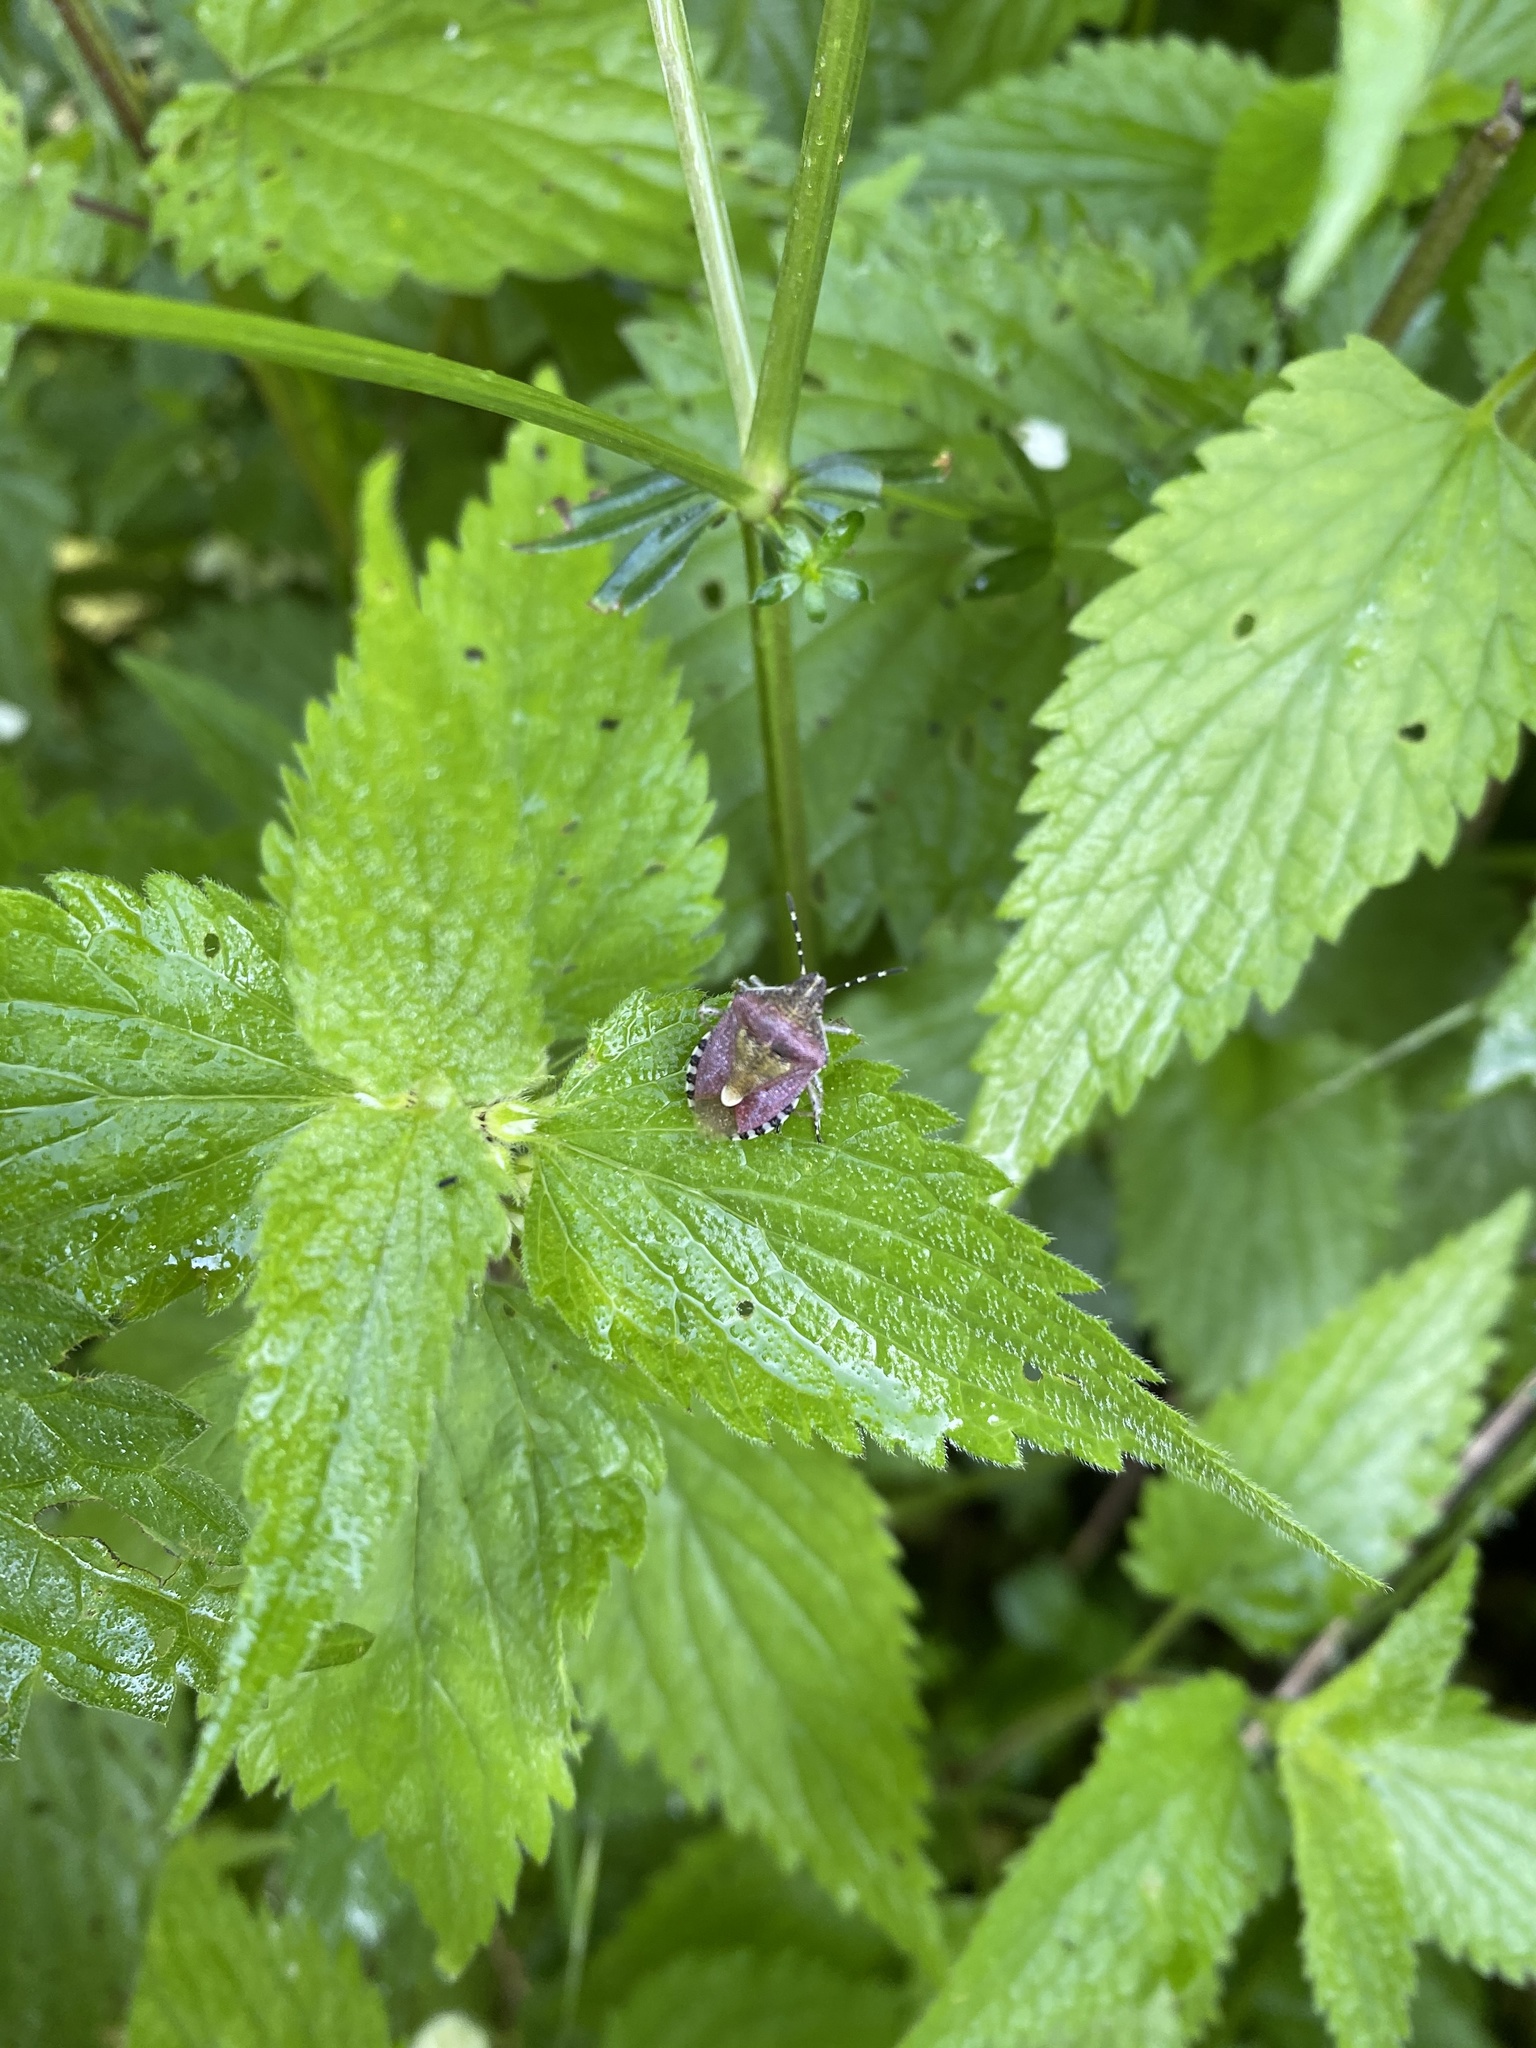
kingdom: Animalia
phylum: Arthropoda
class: Insecta
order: Hemiptera
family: Pentatomidae
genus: Dolycoris
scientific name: Dolycoris baccarum
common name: Sloe bug
